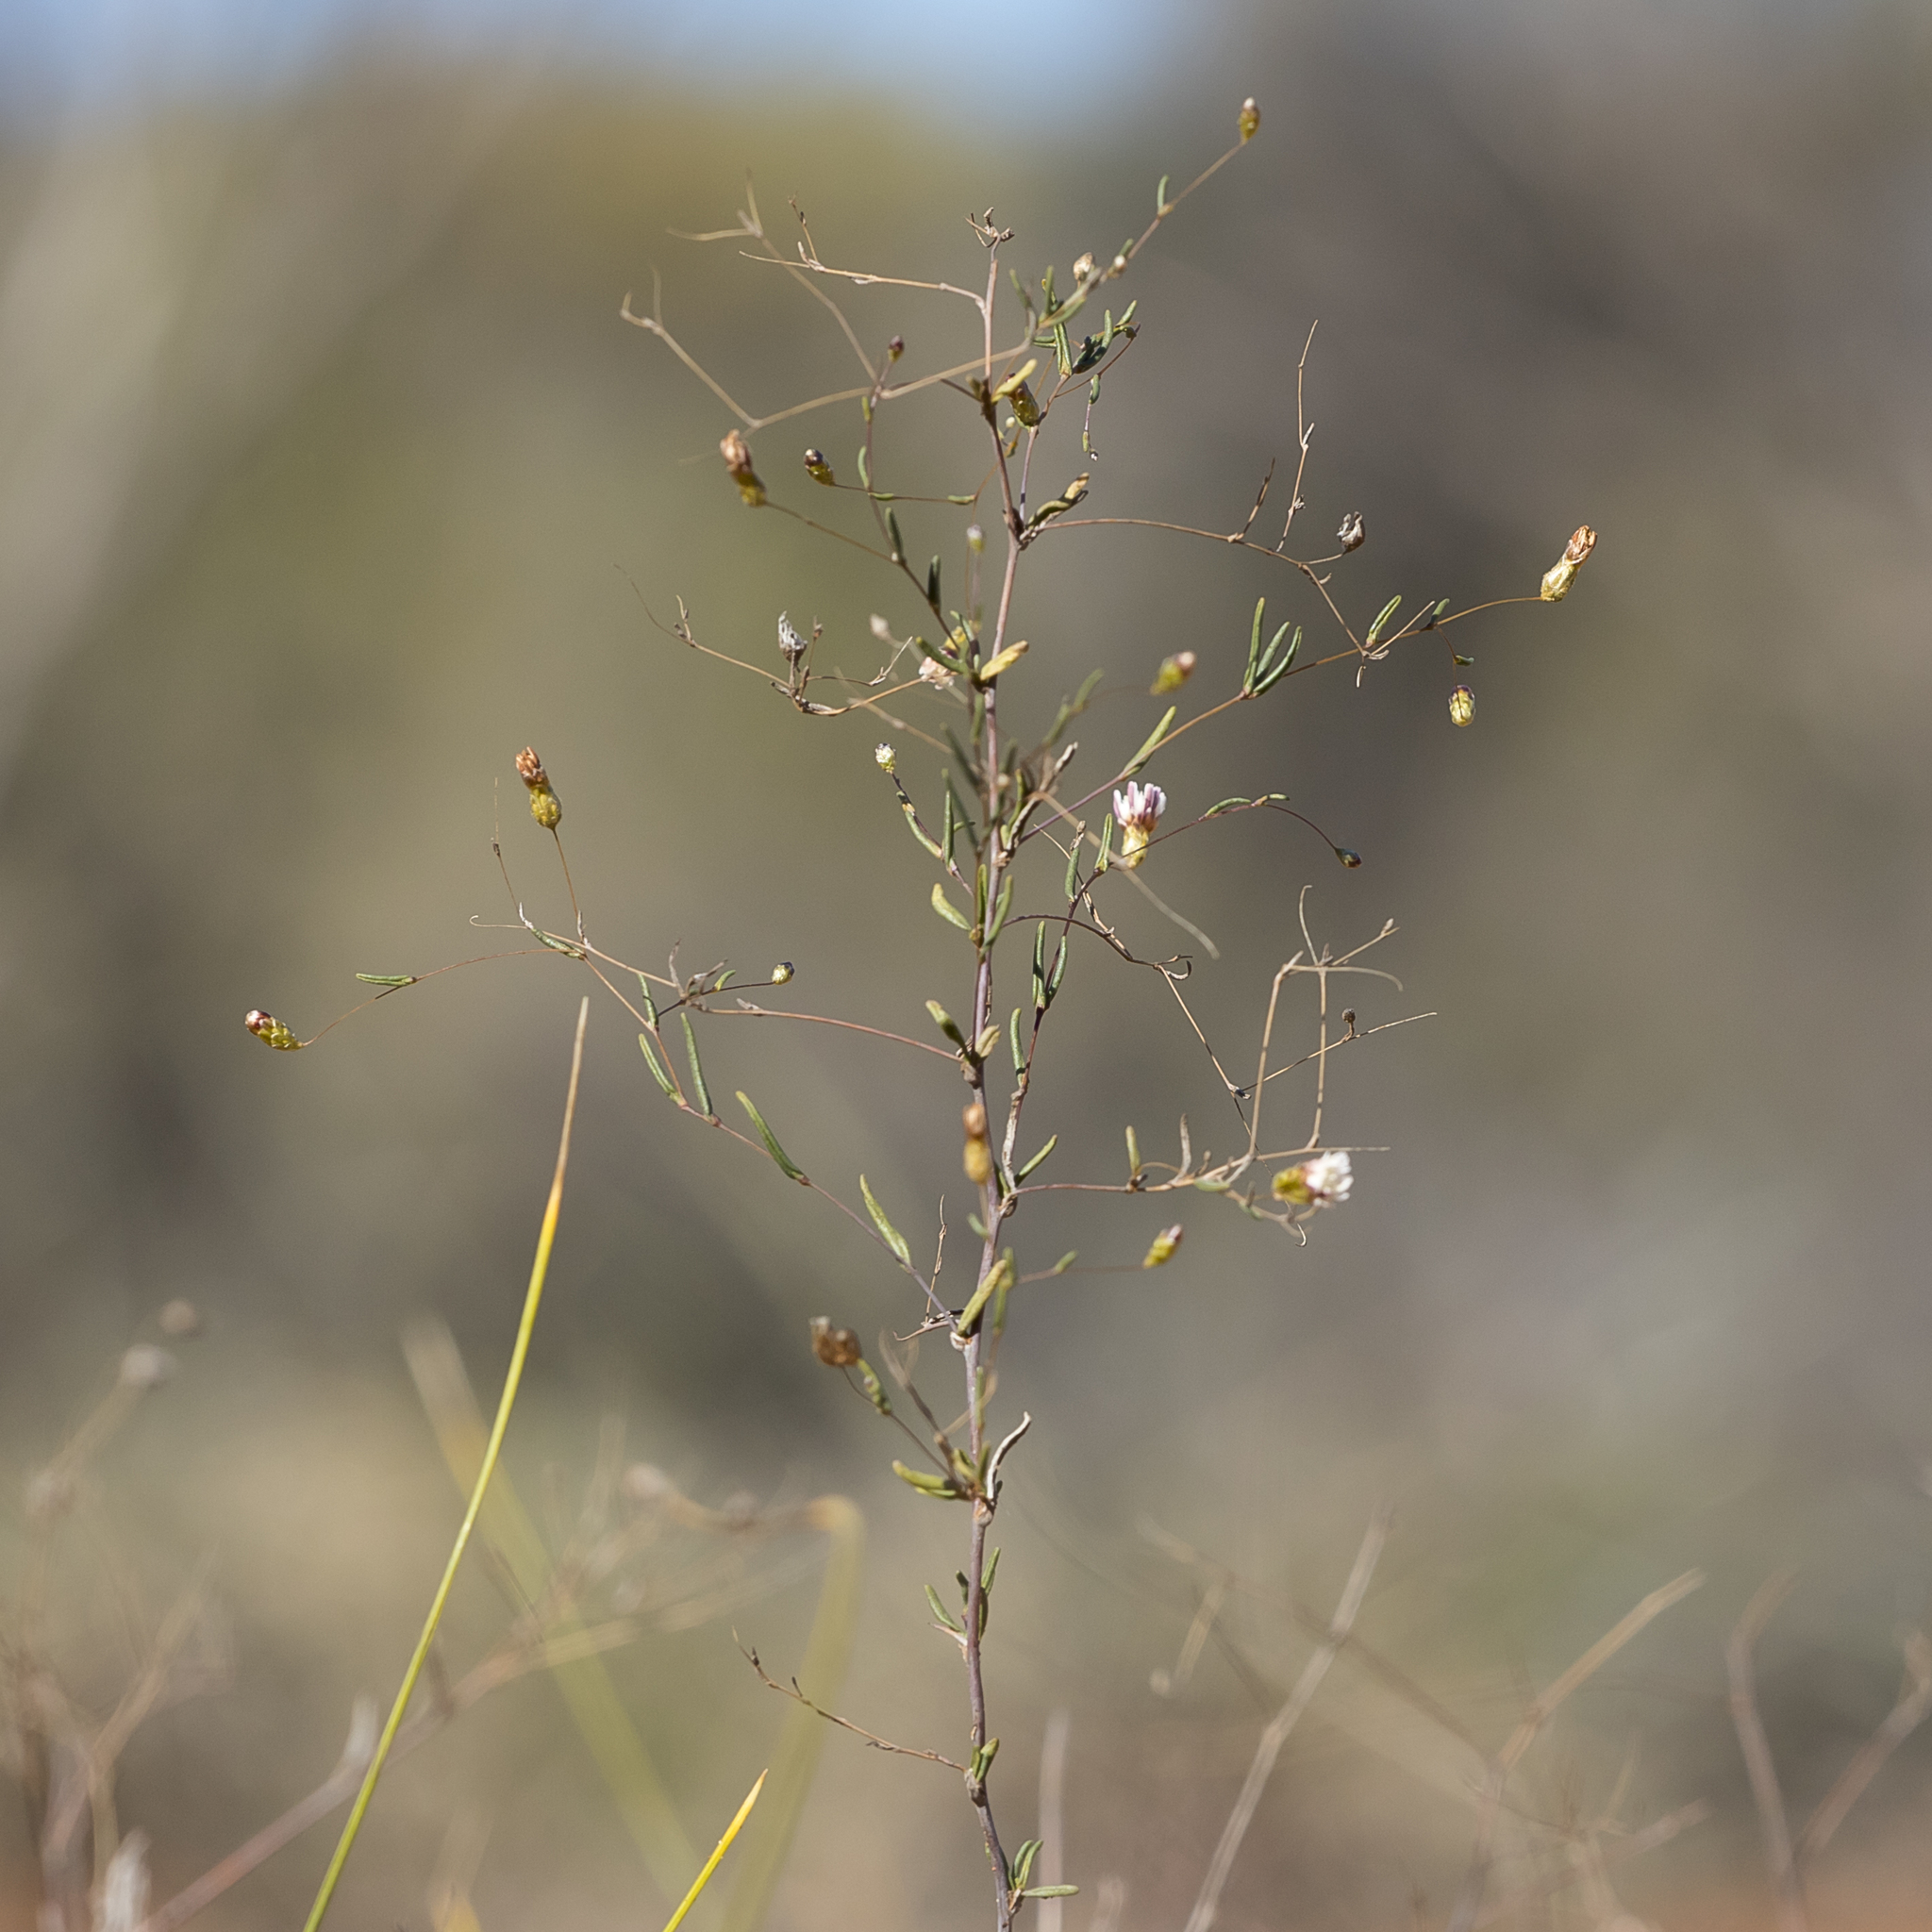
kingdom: Plantae
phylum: Tracheophyta
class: Magnoliopsida
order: Asterales
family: Asteraceae
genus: Siemssenia
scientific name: Siemssenia capillaris
